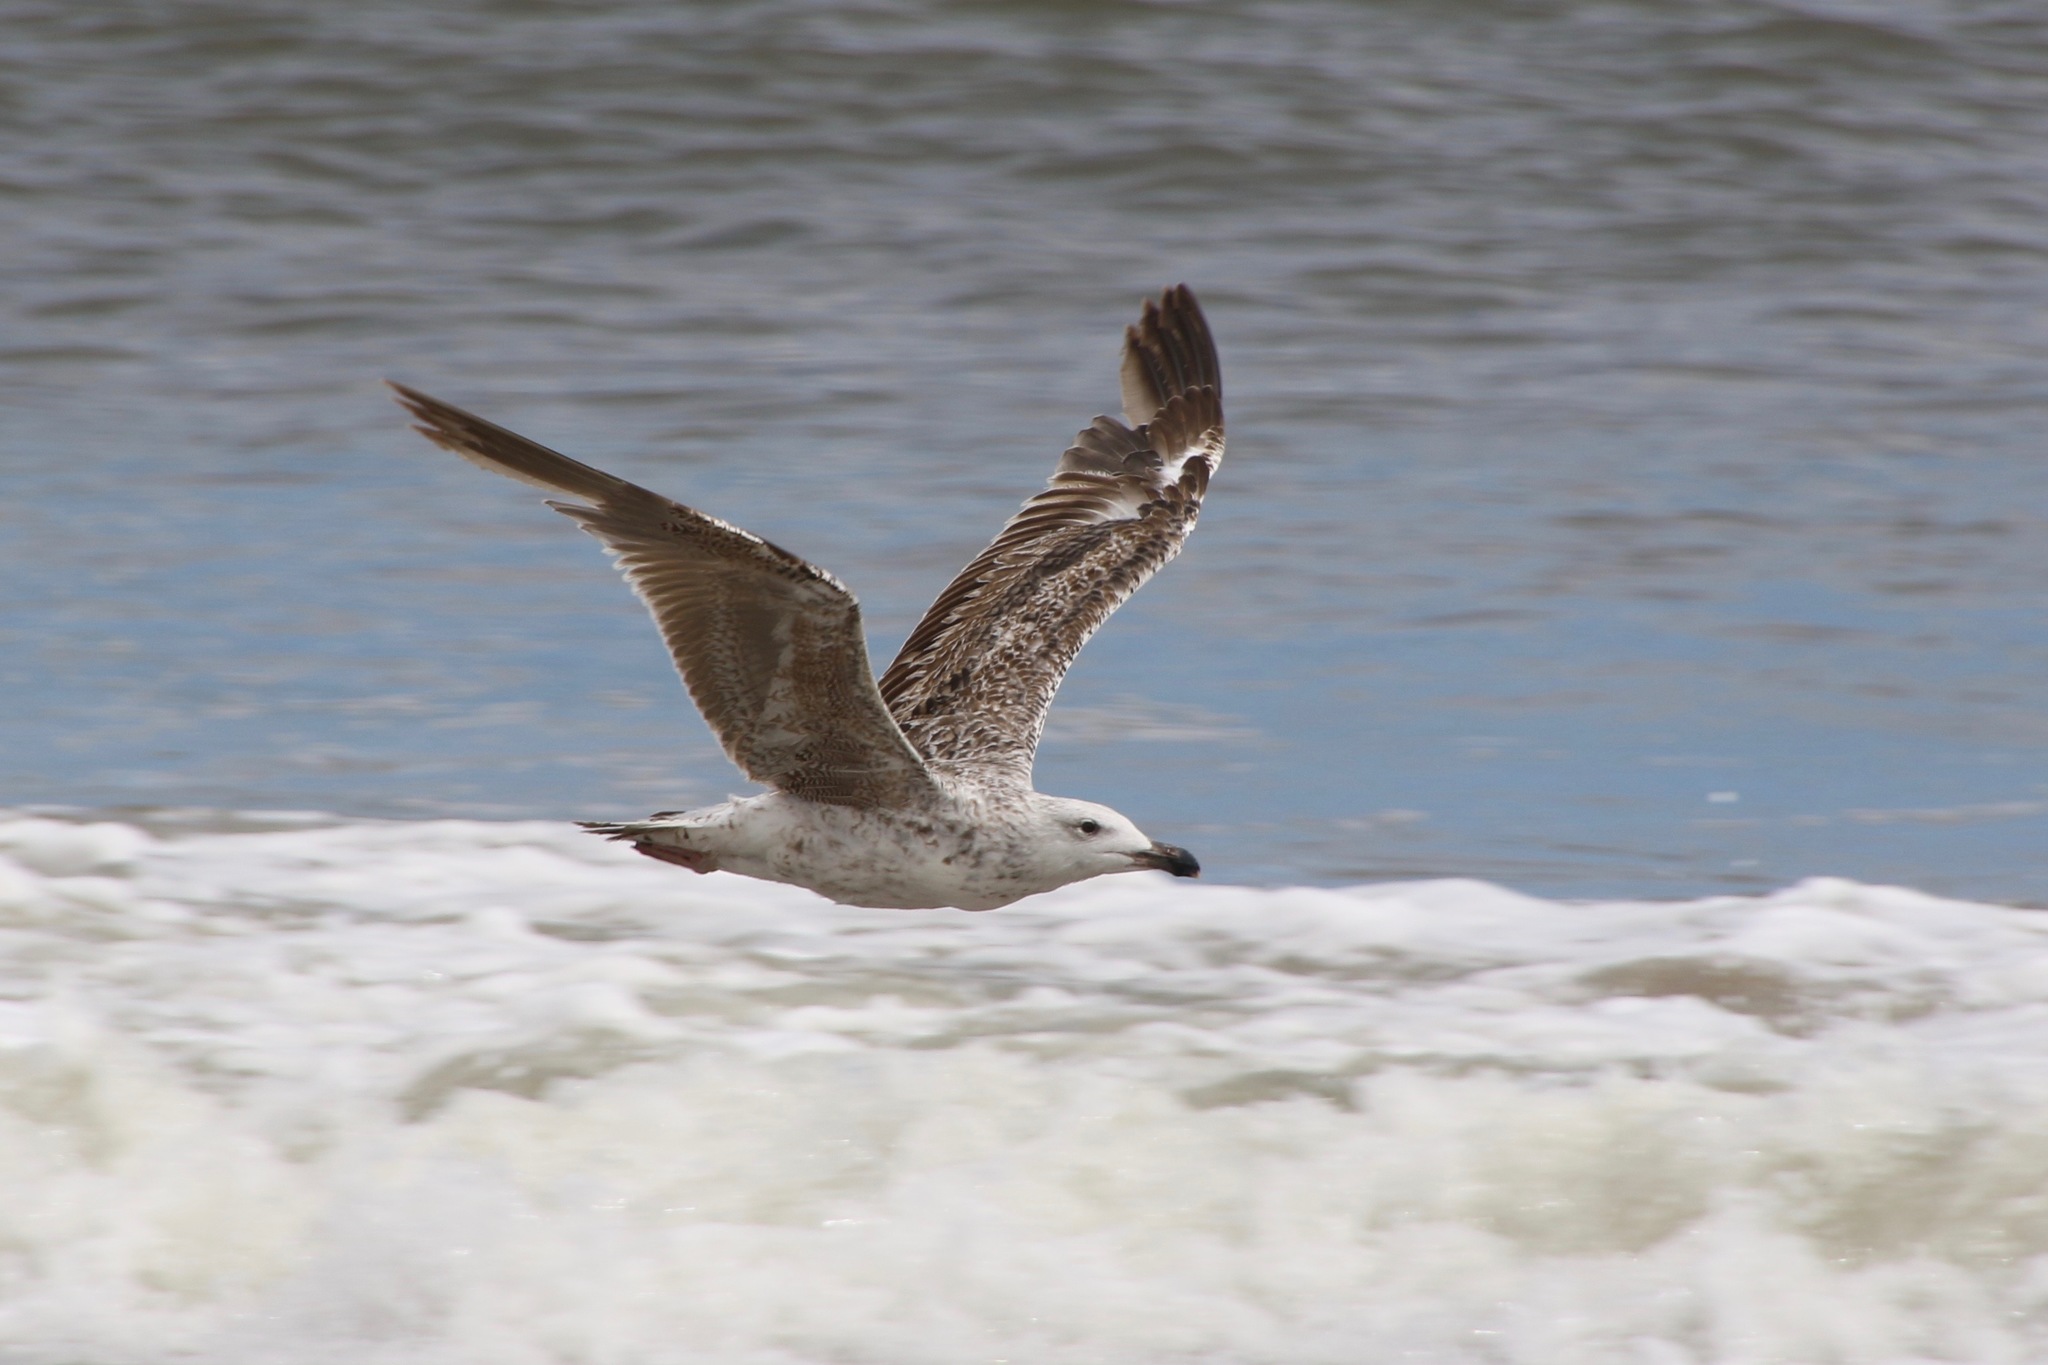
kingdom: Animalia
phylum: Chordata
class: Aves
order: Charadriiformes
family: Laridae
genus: Larus
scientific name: Larus marinus
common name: Great black-backed gull
